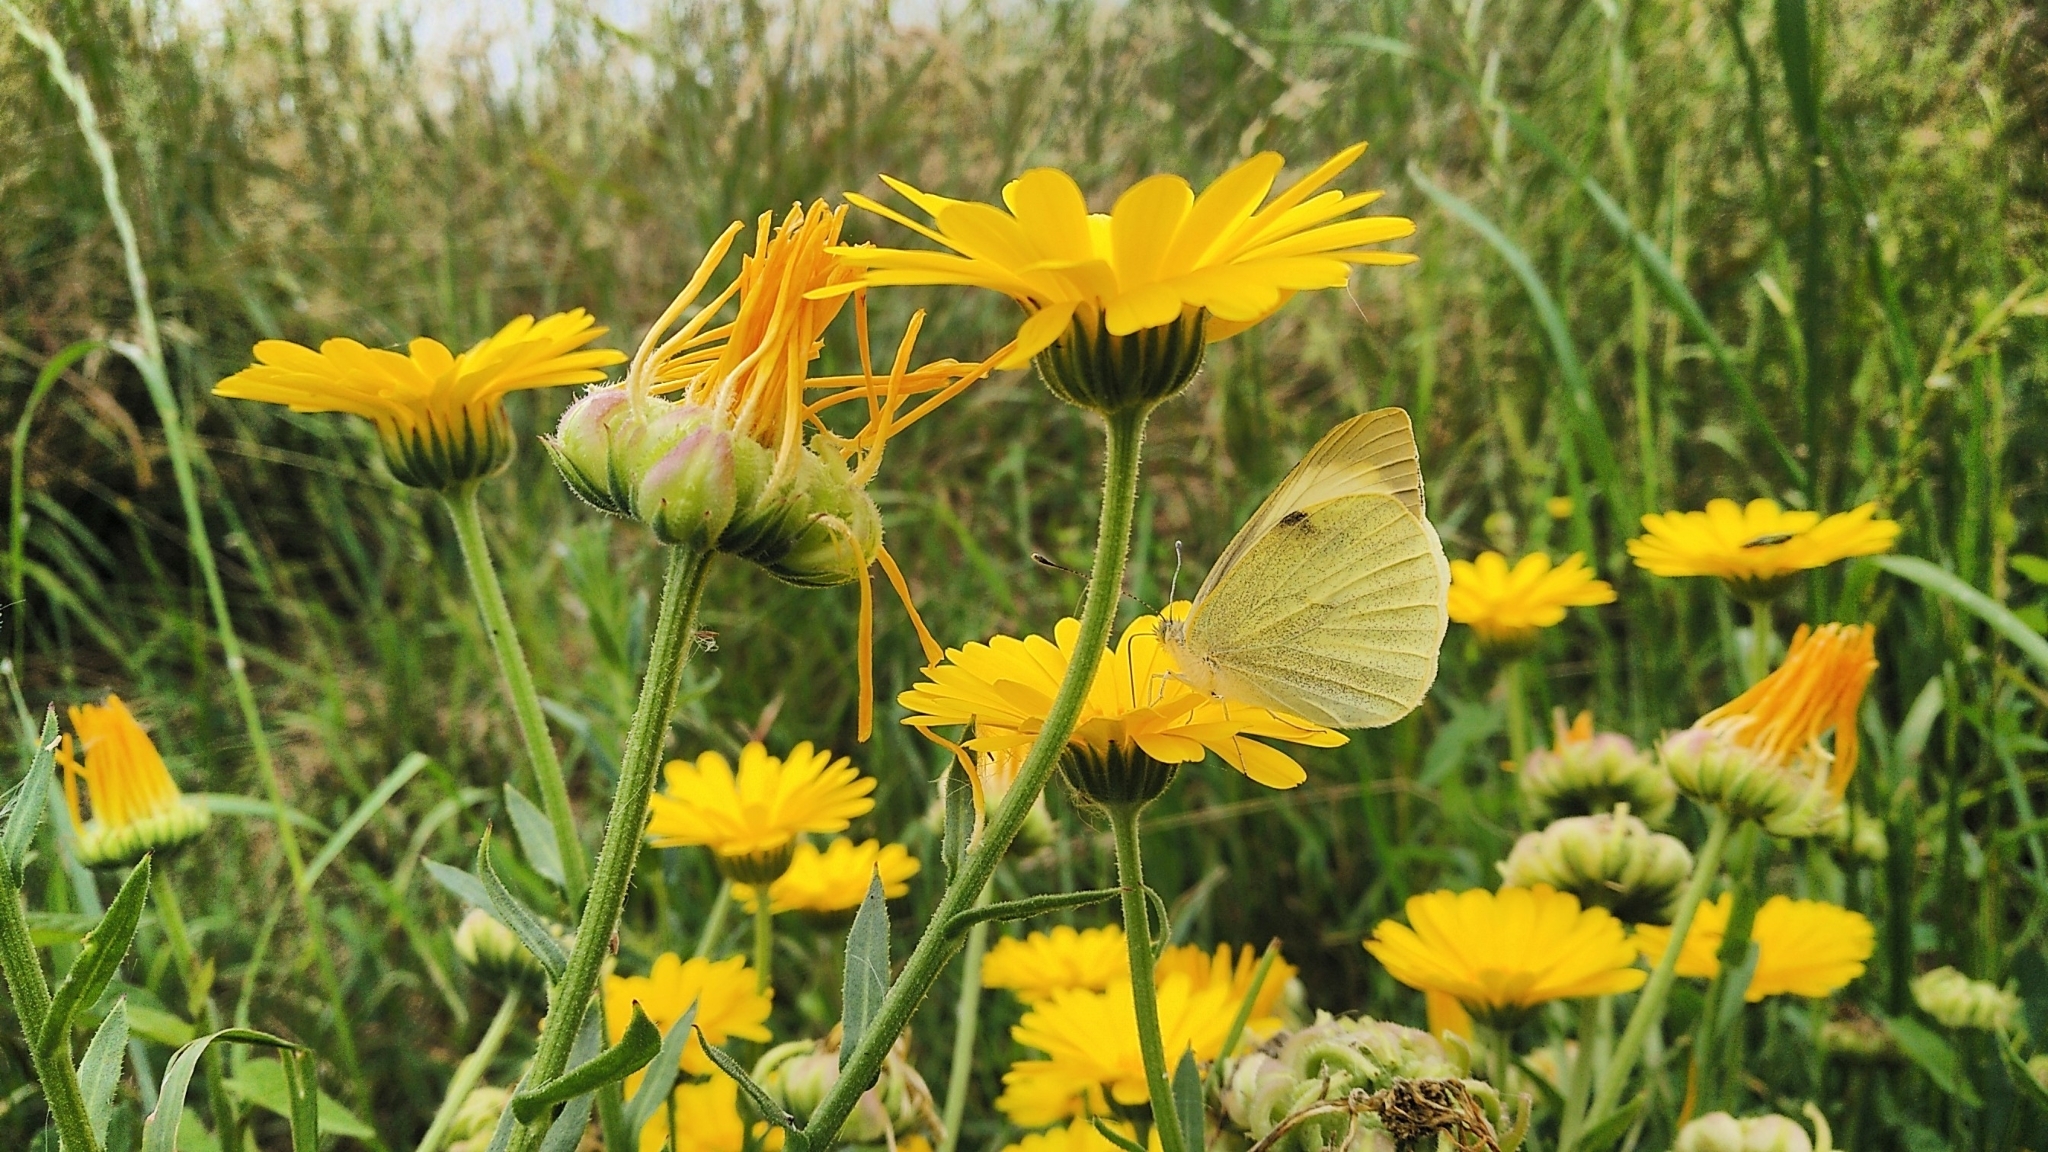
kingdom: Animalia
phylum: Arthropoda
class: Insecta
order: Lepidoptera
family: Pieridae
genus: Pieris
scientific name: Pieris brassicae
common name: Large white
